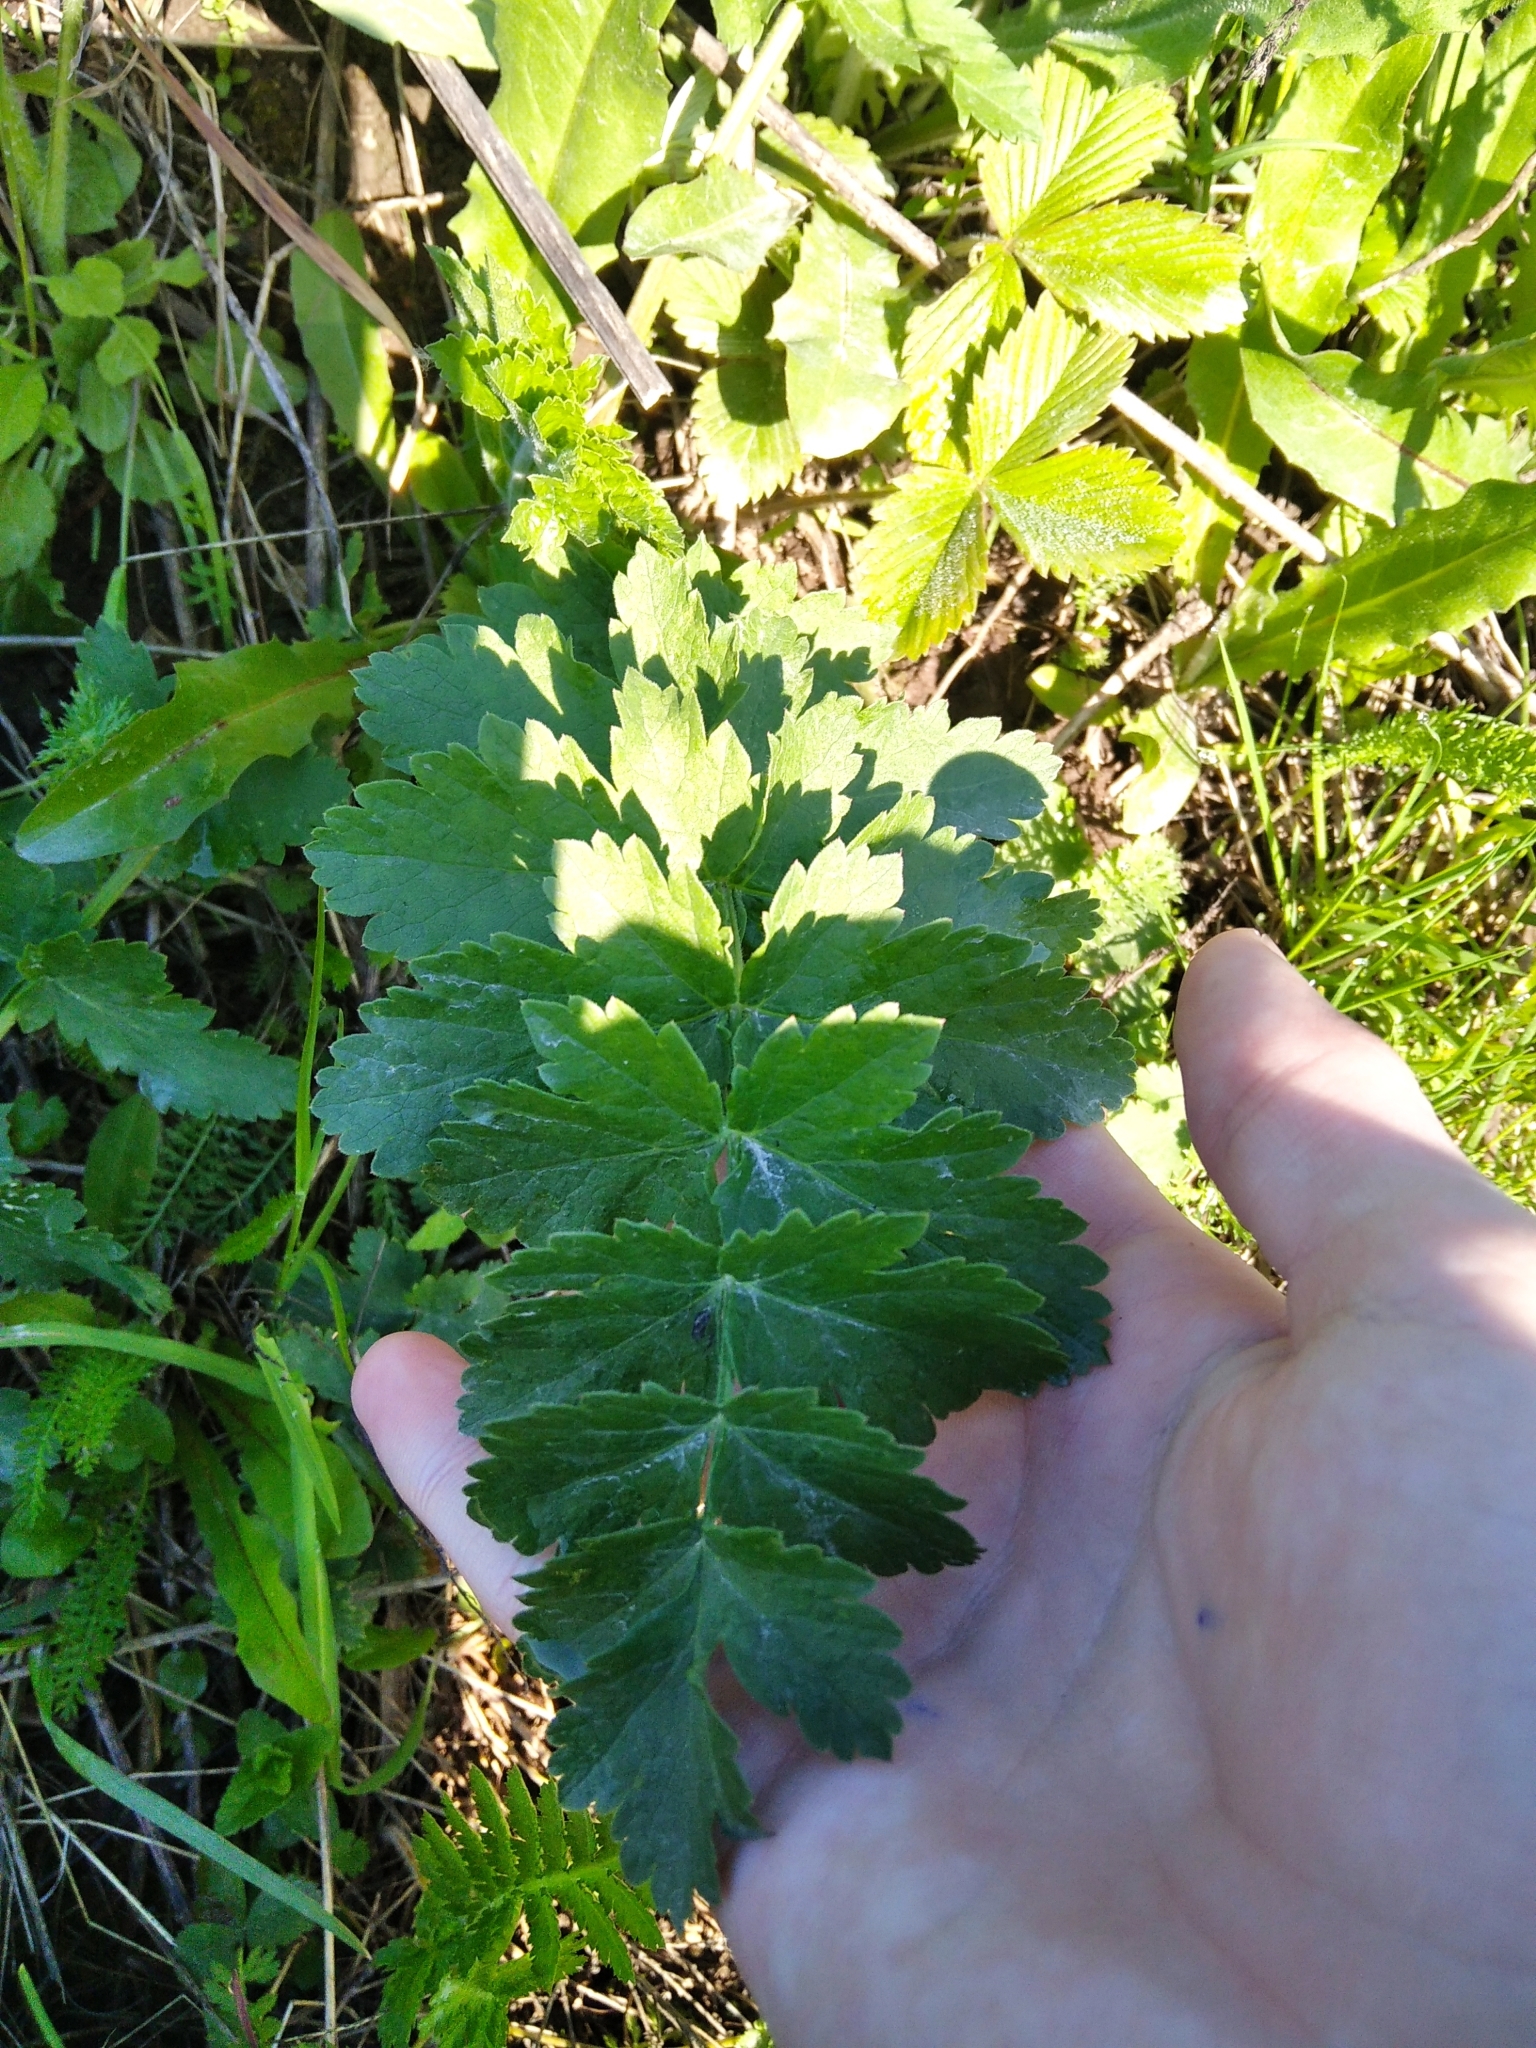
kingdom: Plantae
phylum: Tracheophyta
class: Magnoliopsida
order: Apiales
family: Apiaceae
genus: Pastinaca
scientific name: Pastinaca sativa
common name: Wild parsnip
